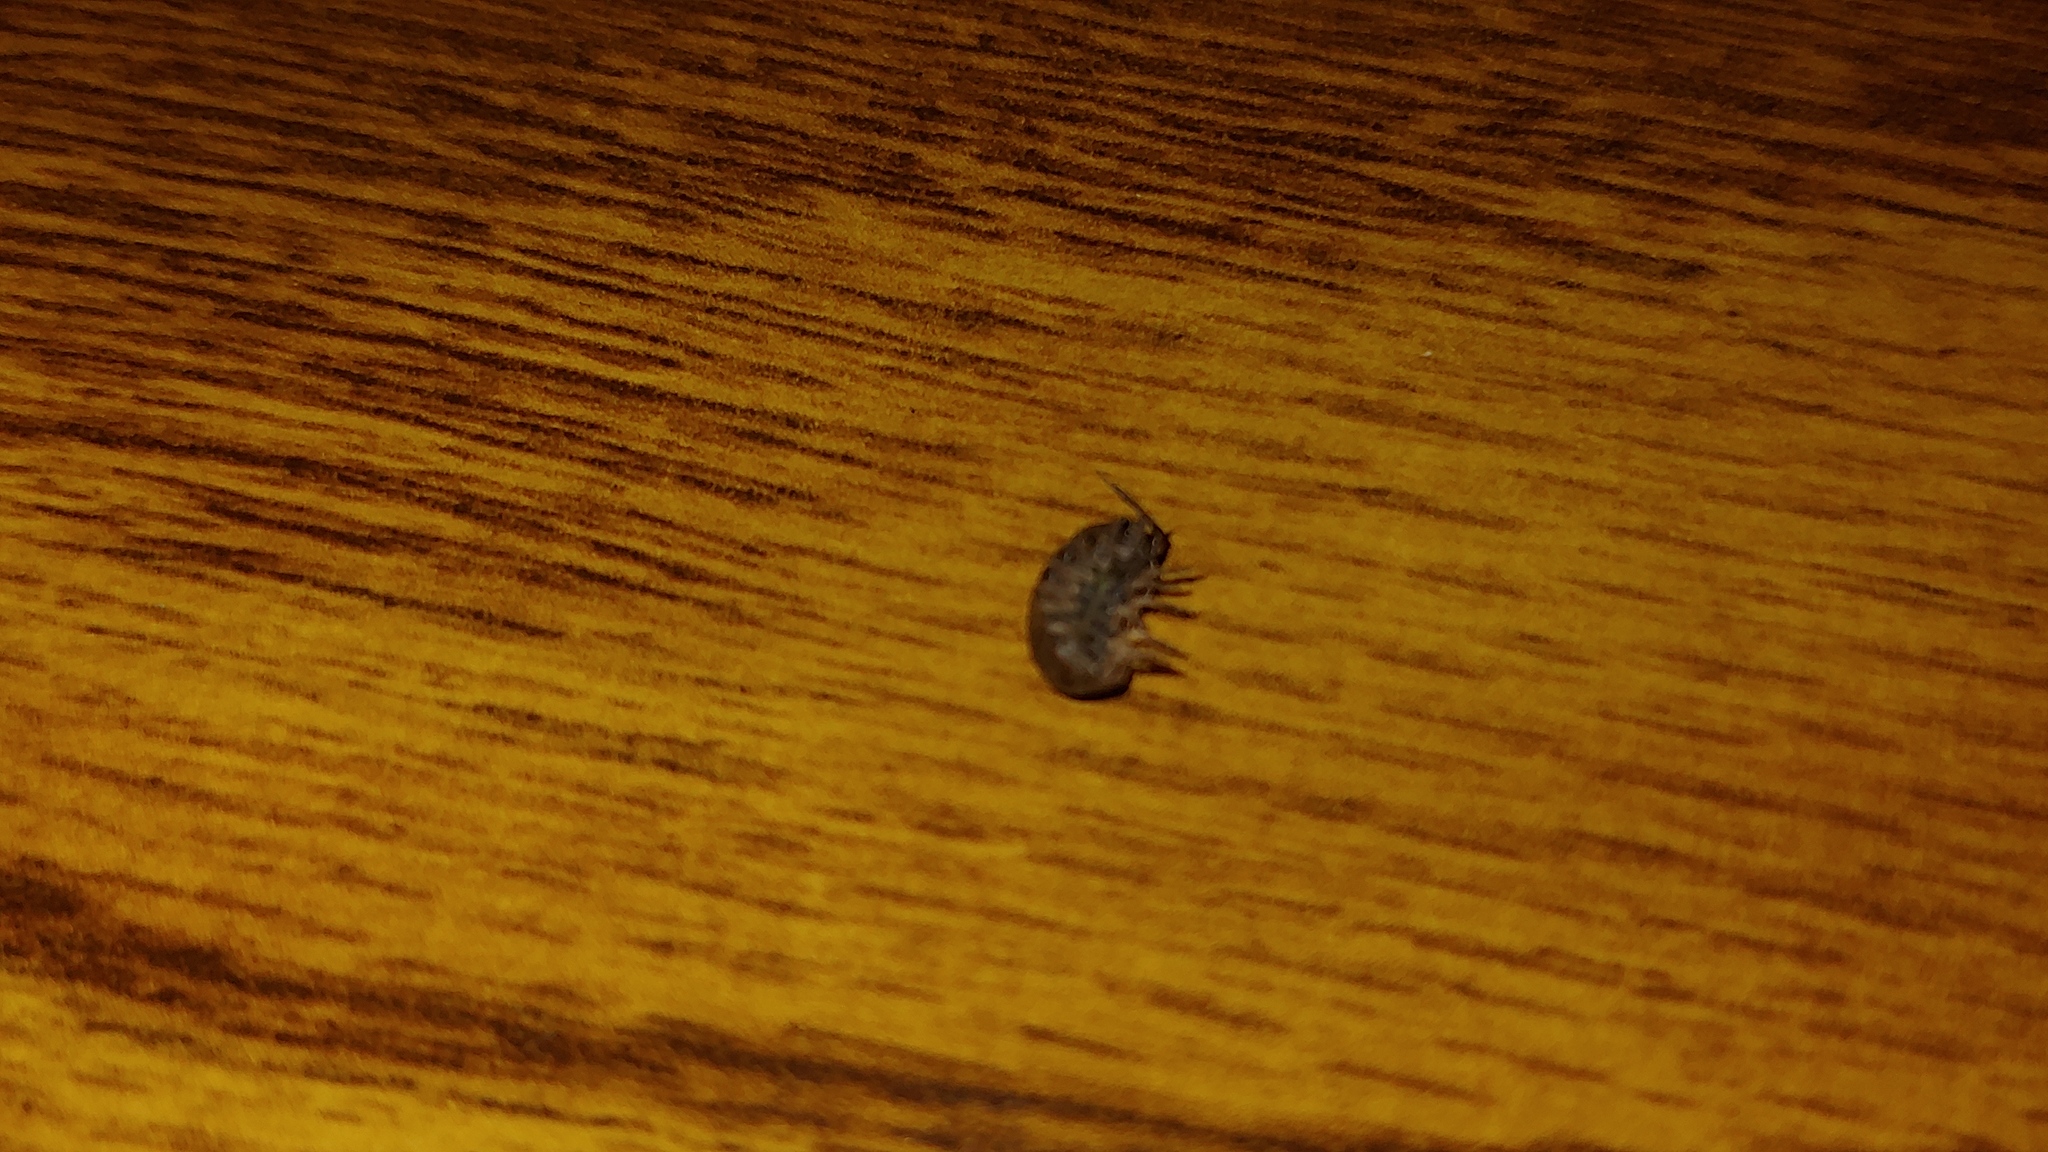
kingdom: Animalia
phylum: Arthropoda
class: Malacostraca
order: Isopoda
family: Armadillidiidae
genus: Armadillidium
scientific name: Armadillidium vulgare
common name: Common pill woodlouse
